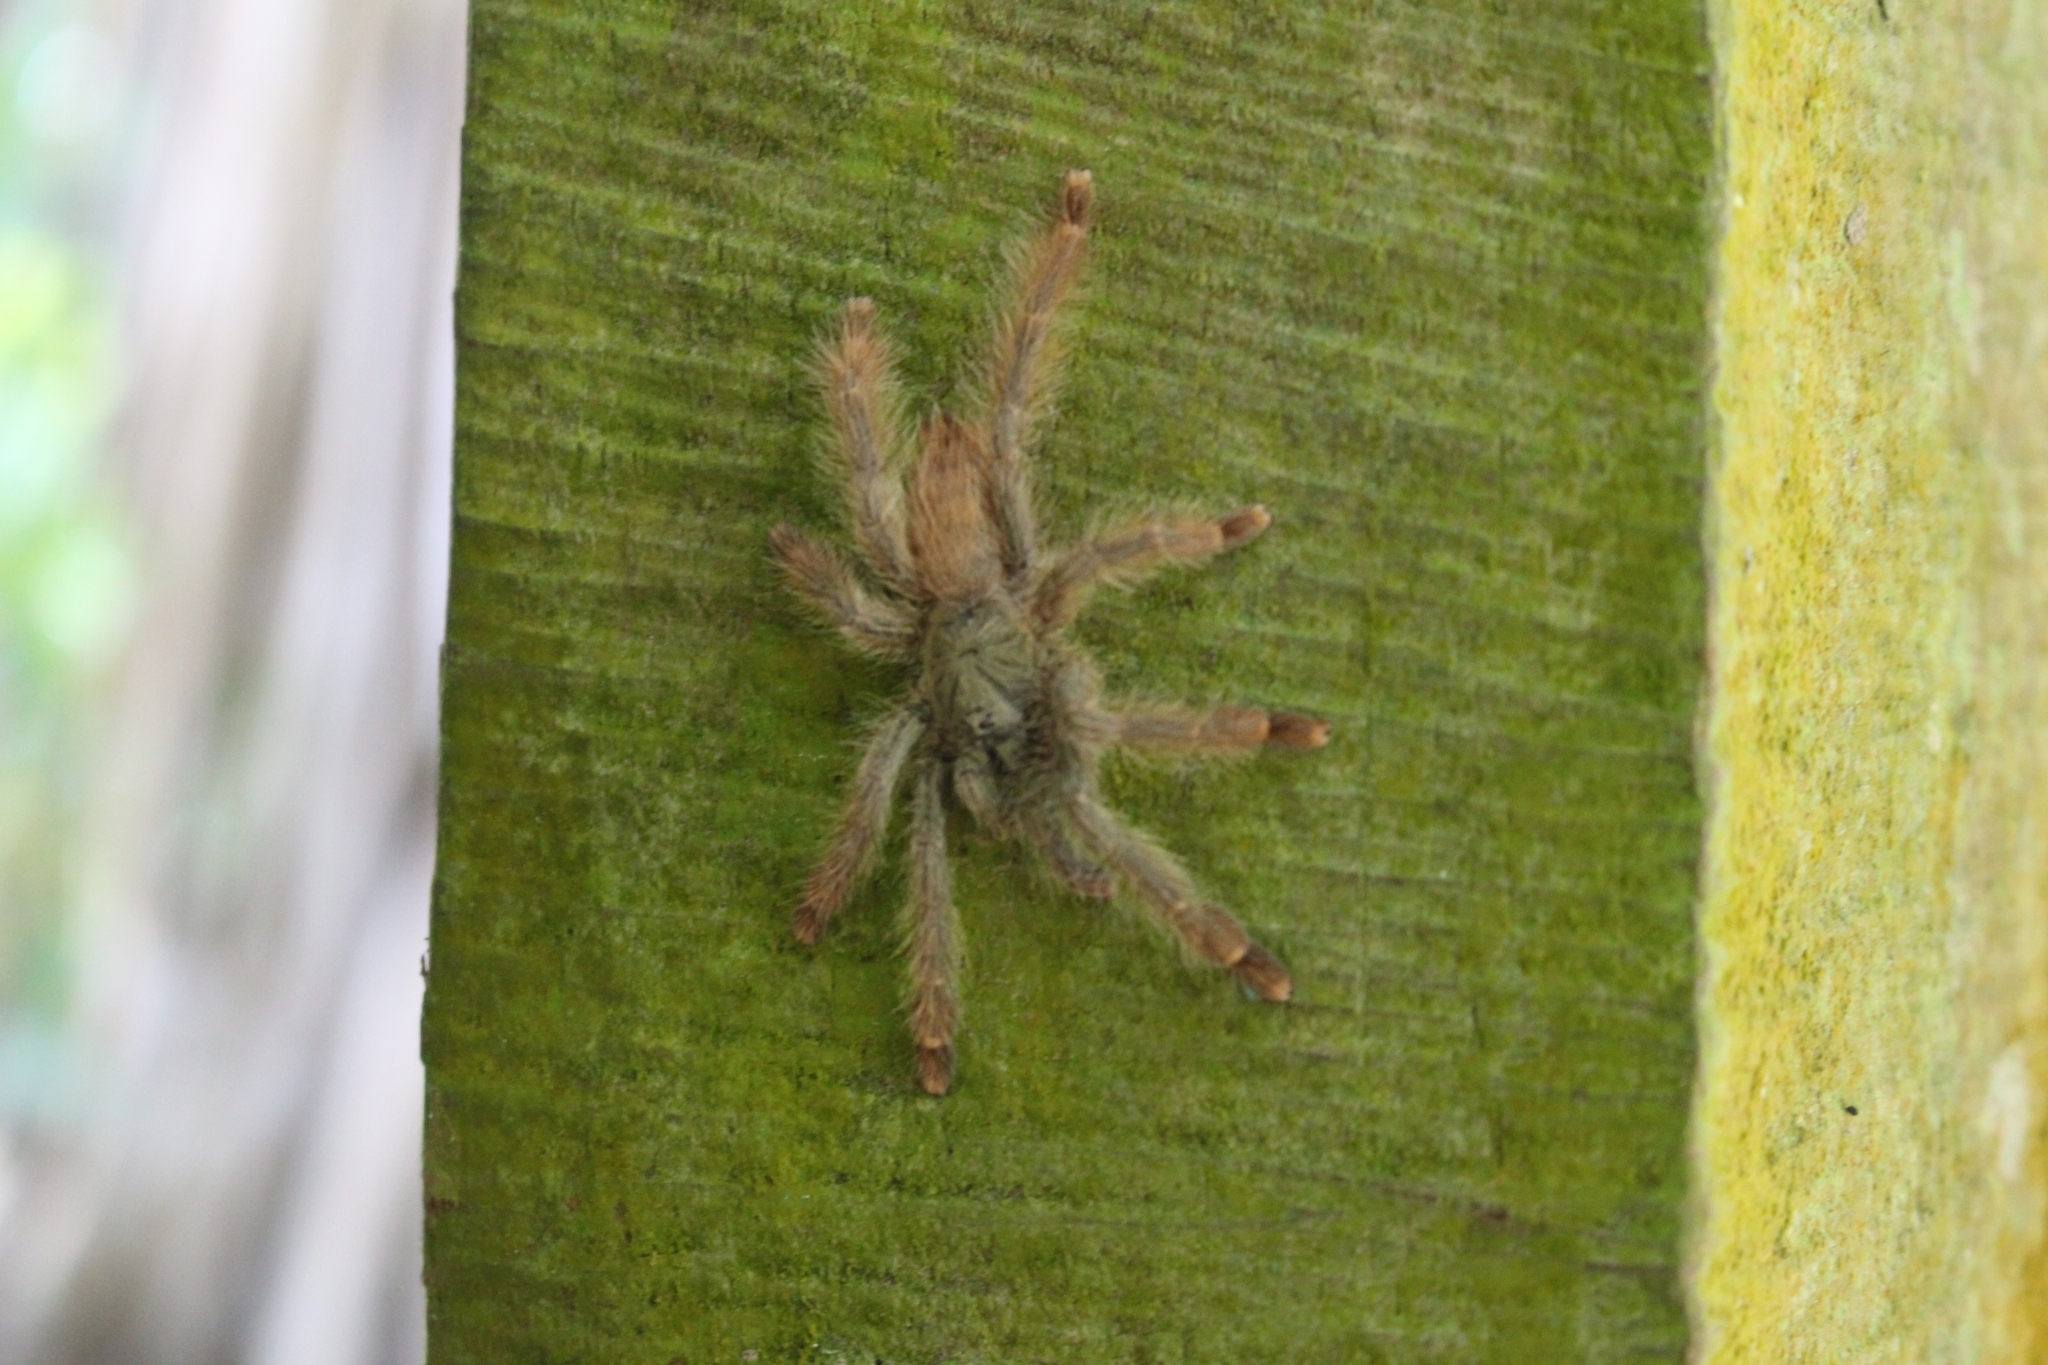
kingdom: Animalia
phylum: Arthropoda
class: Arachnida
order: Araneae
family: Theraphosidae
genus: Amazonius
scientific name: Amazonius germani
